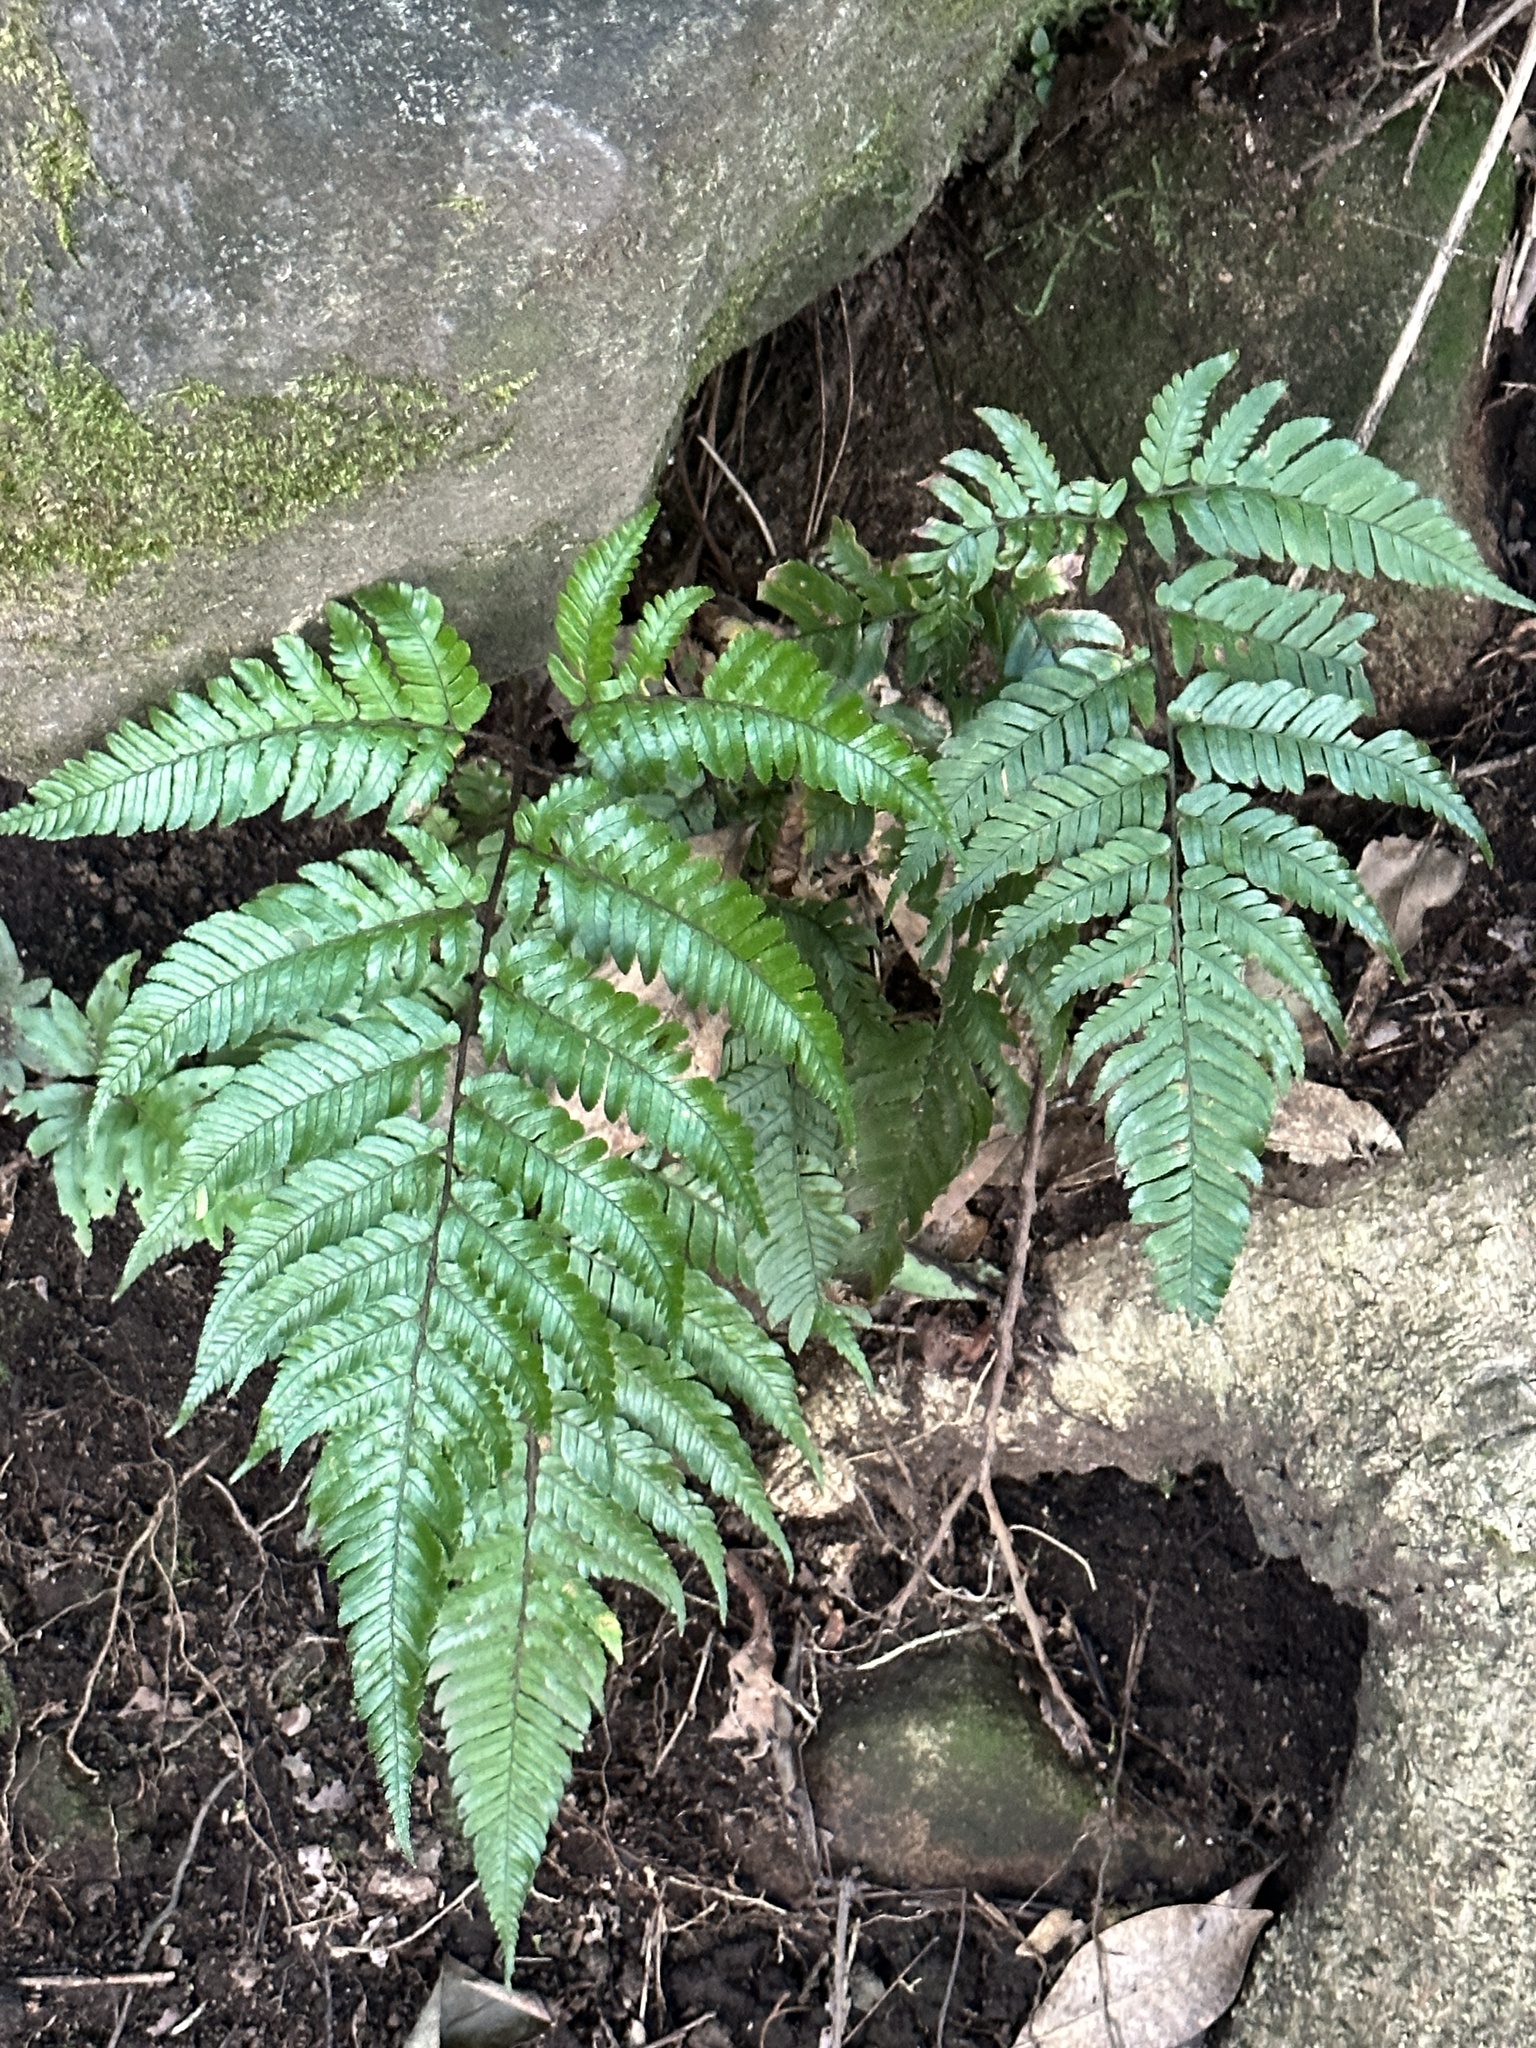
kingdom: Plantae
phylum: Tracheophyta
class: Polypodiopsida
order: Polypodiales
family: Dryopteridaceae
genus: Dryopteris
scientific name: Dryopteris sordidipes
